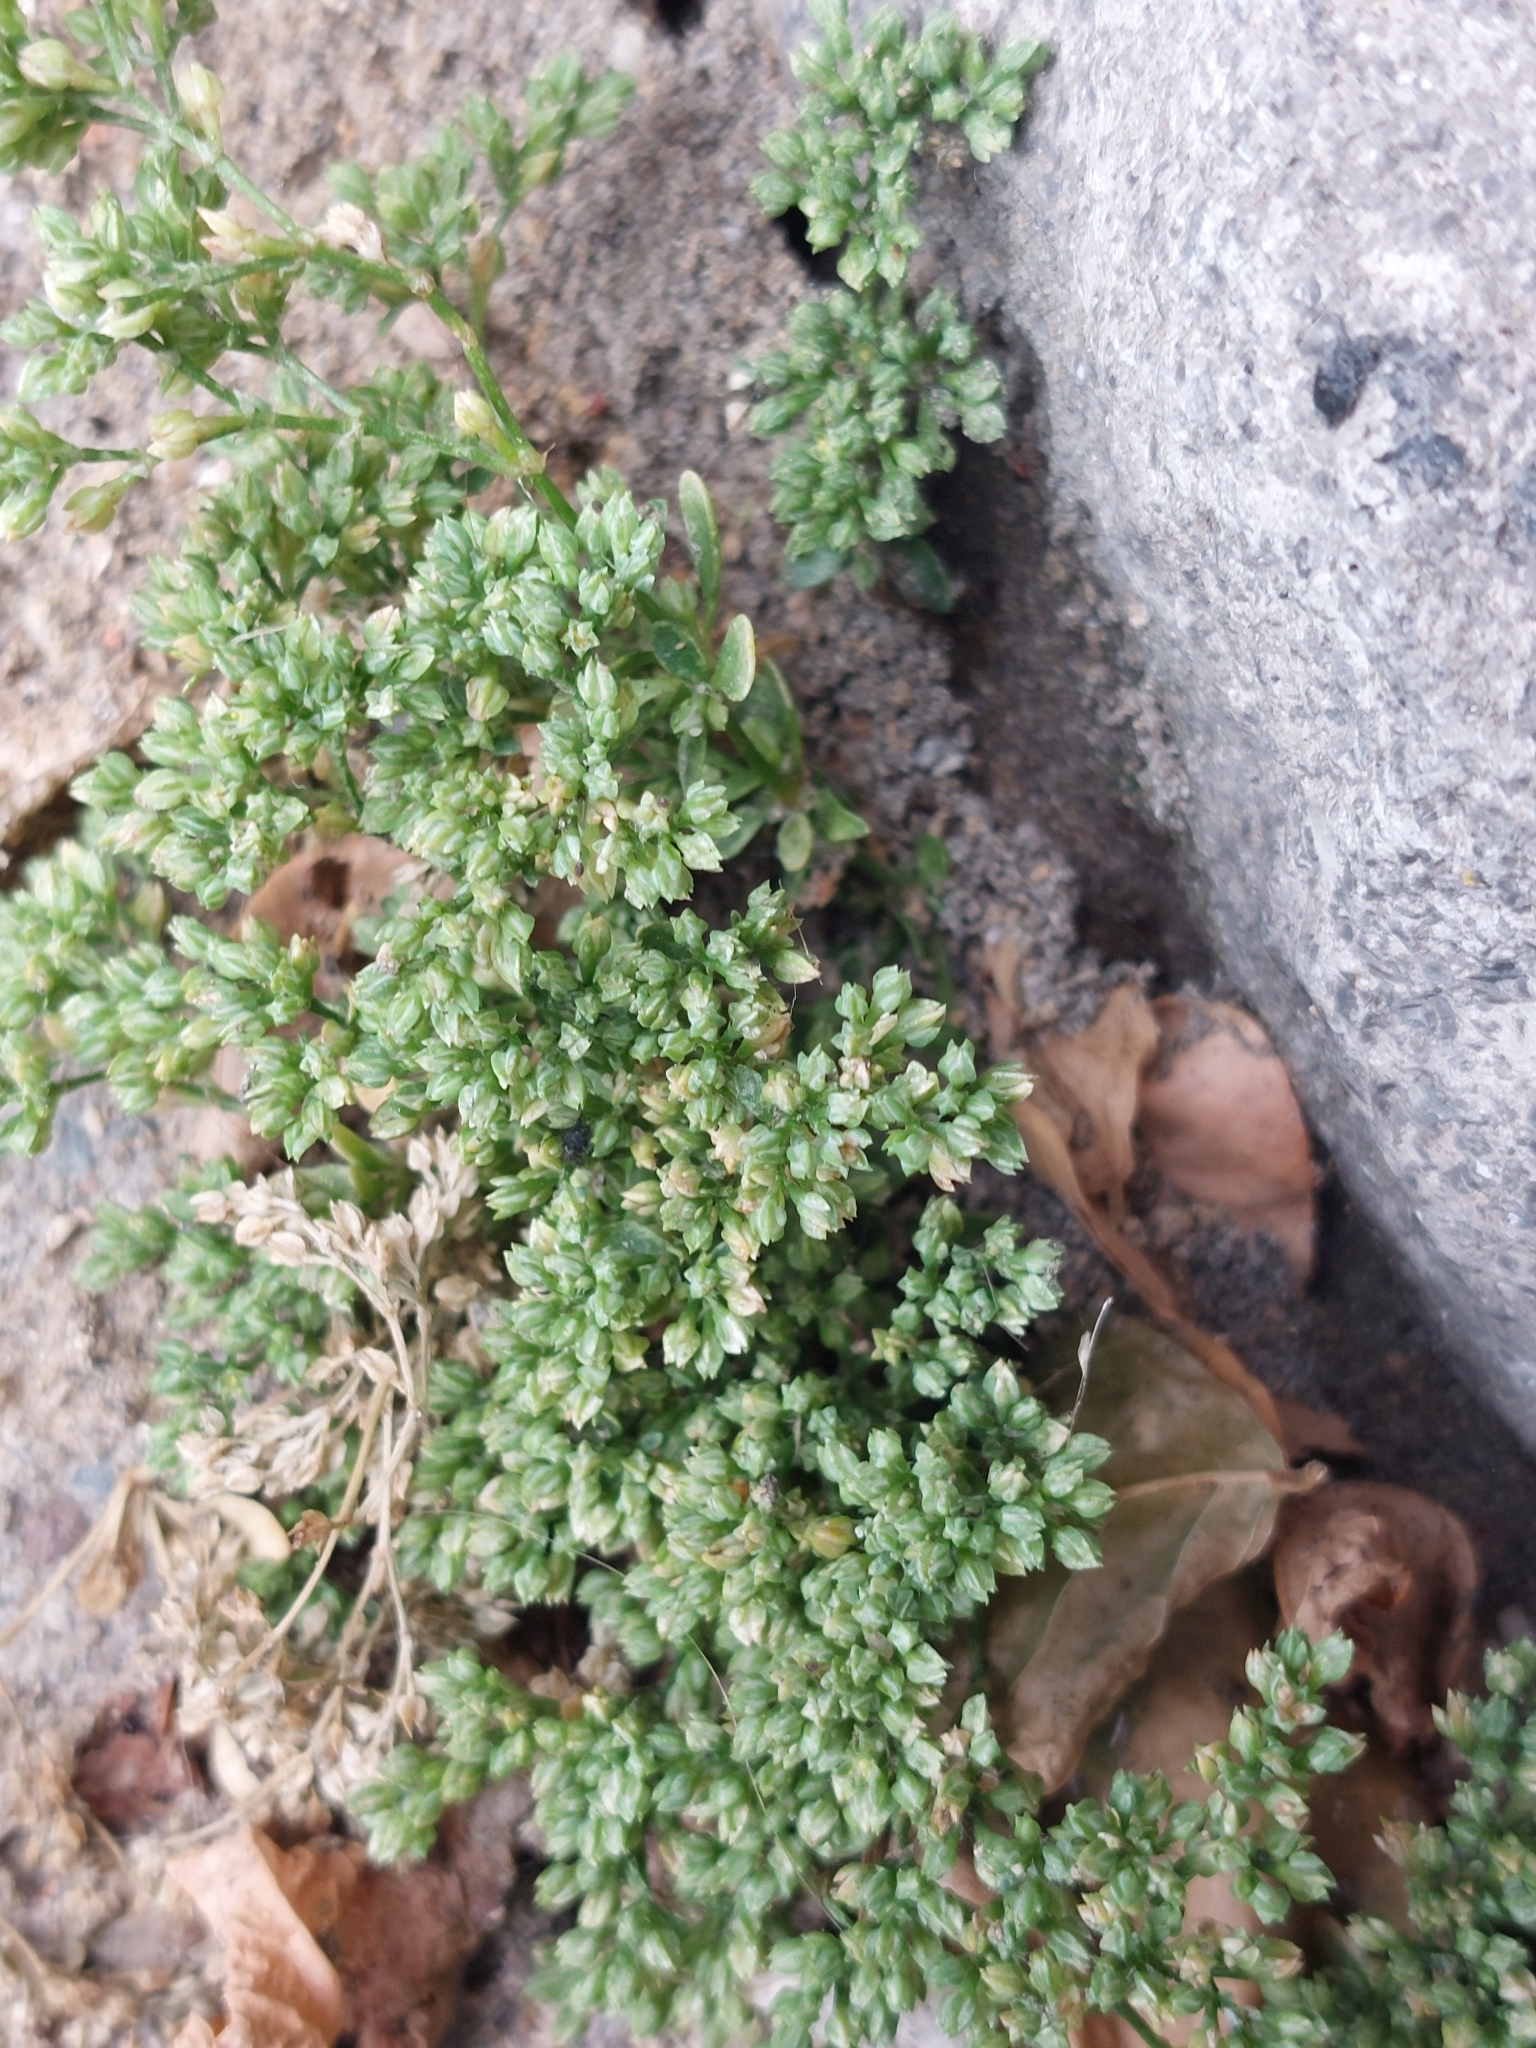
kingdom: Plantae
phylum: Tracheophyta
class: Magnoliopsida
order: Caryophyllales
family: Caryophyllaceae
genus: Polycarpon
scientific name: Polycarpon tetraphyllum
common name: Four-leaved all-seed
